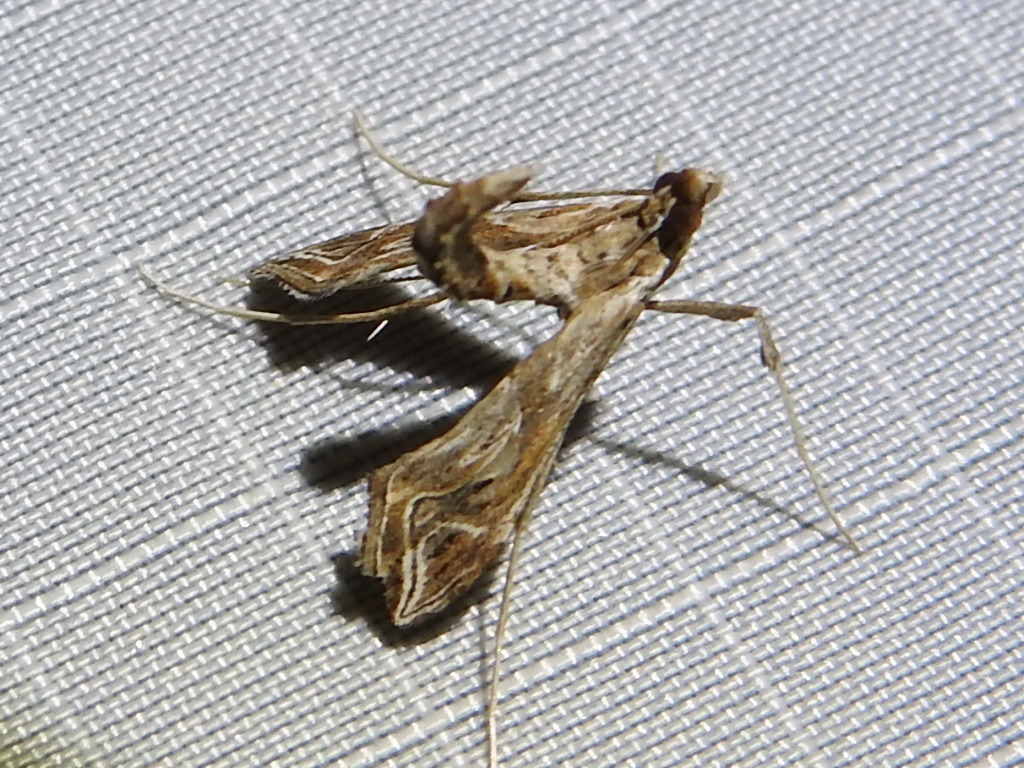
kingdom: Animalia
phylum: Arthropoda
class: Insecta
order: Lepidoptera
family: Crambidae
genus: Lineodes
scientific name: Lineodes integra
